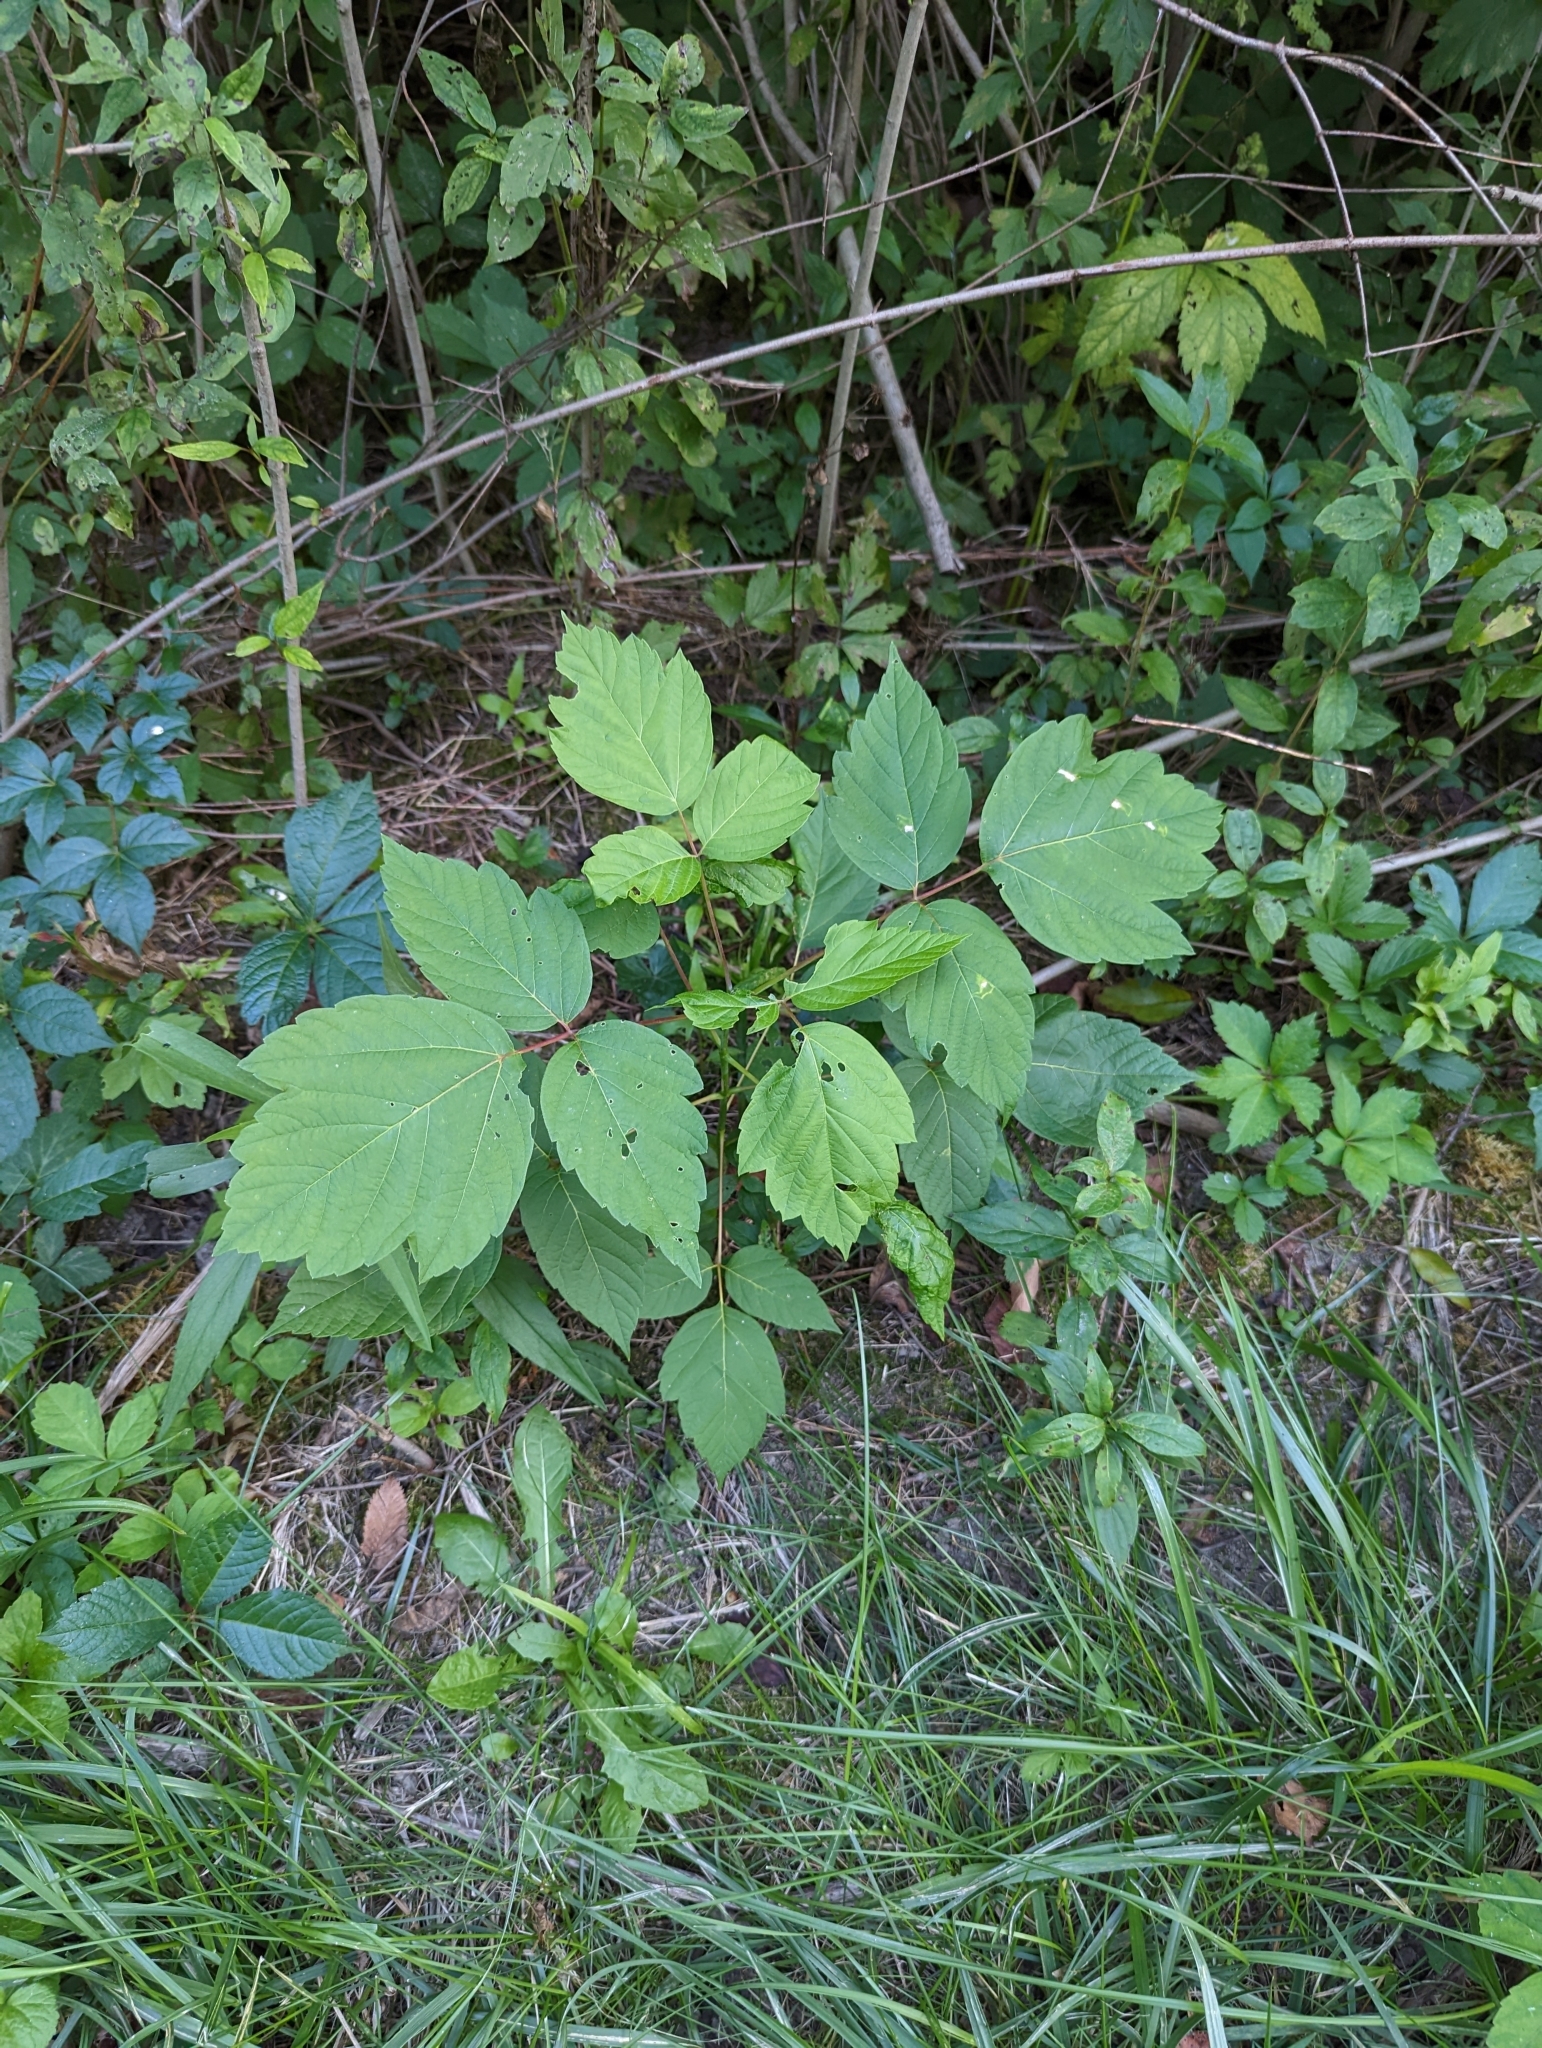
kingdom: Plantae
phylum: Tracheophyta
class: Magnoliopsida
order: Sapindales
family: Sapindaceae
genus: Acer
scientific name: Acer negundo
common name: Ashleaf maple
